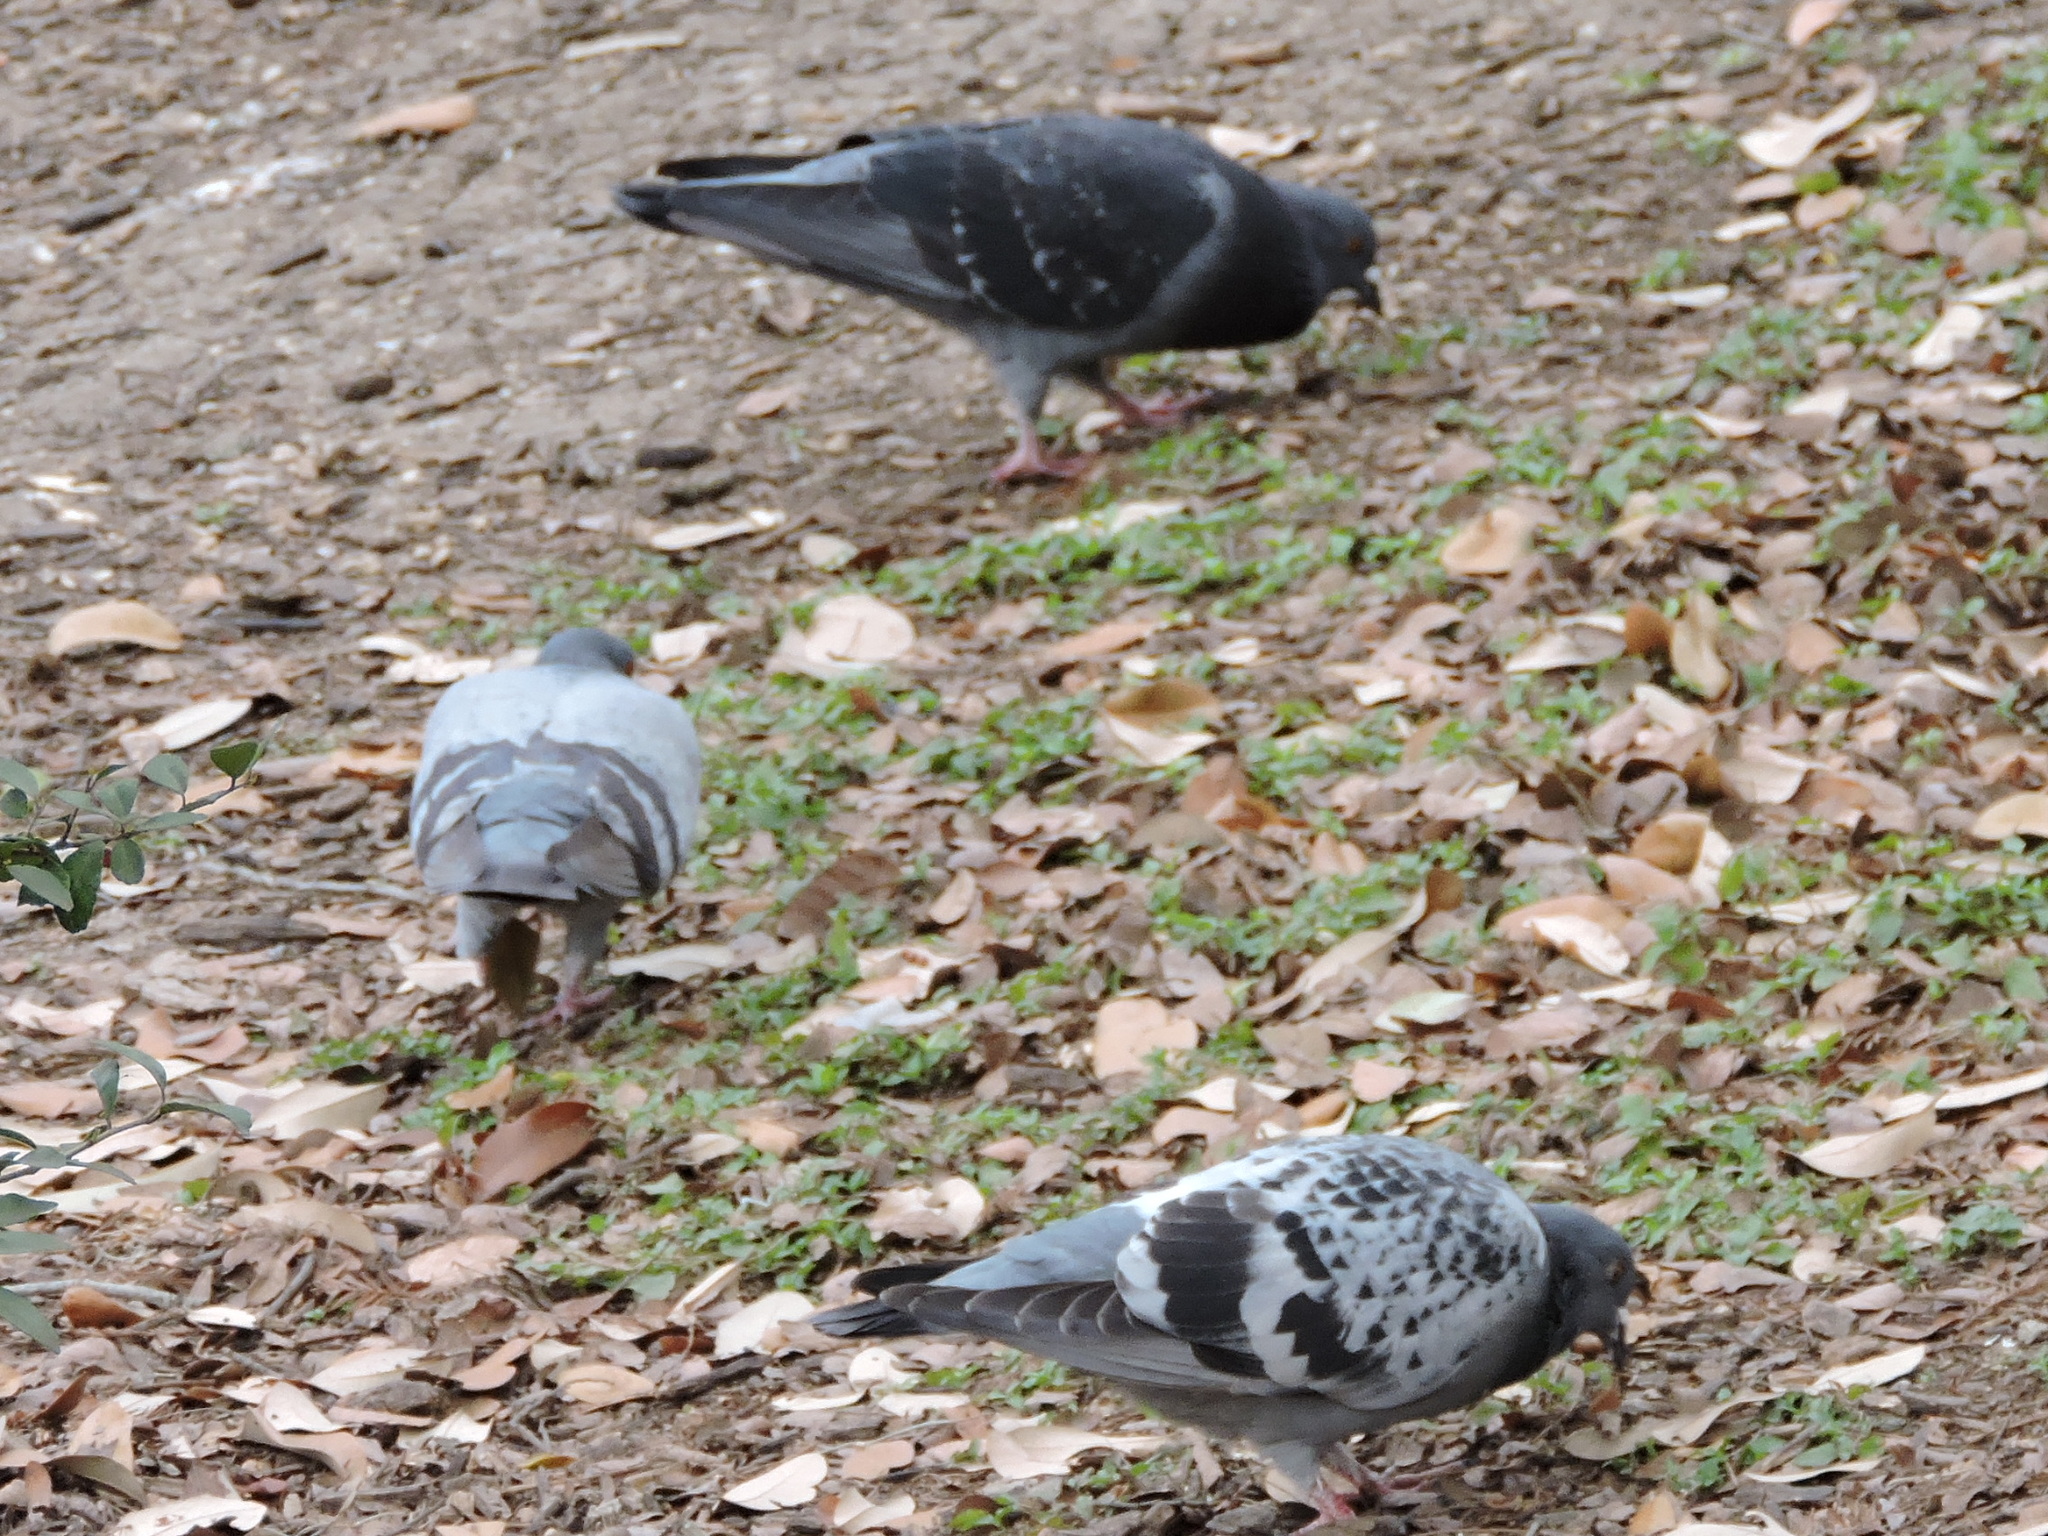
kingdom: Animalia
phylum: Chordata
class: Aves
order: Columbiformes
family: Columbidae
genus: Columba
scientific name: Columba livia
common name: Rock pigeon
